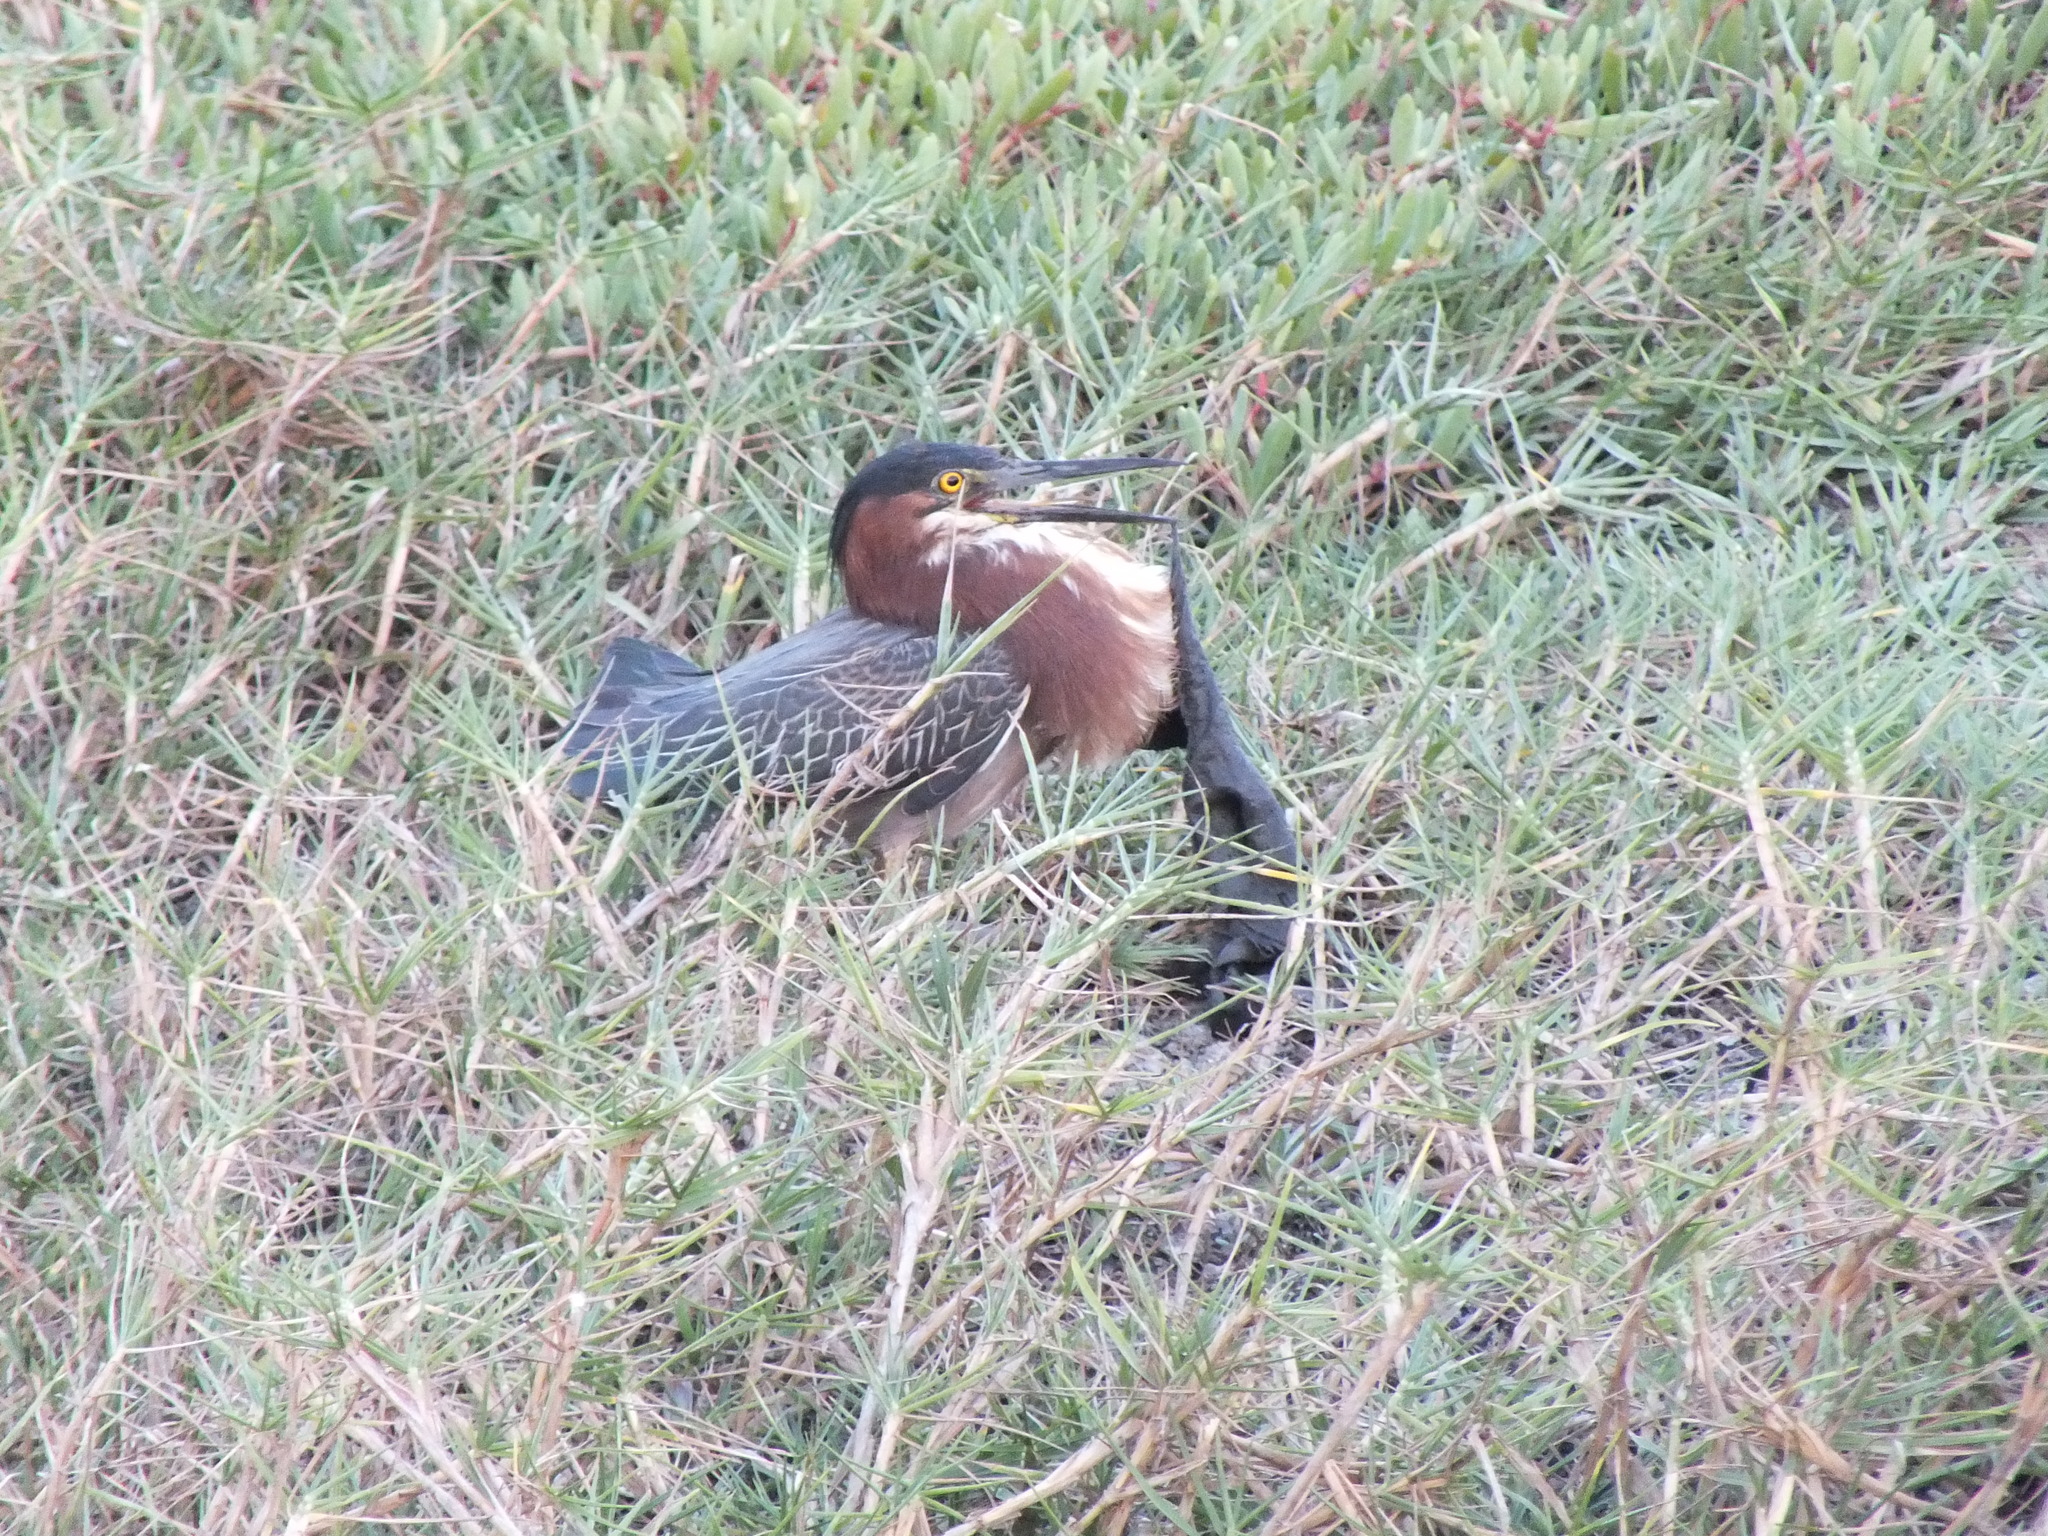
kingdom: Animalia
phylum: Chordata
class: Aves
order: Pelecaniformes
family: Ardeidae
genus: Butorides
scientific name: Butorides virescens
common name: Green heron
